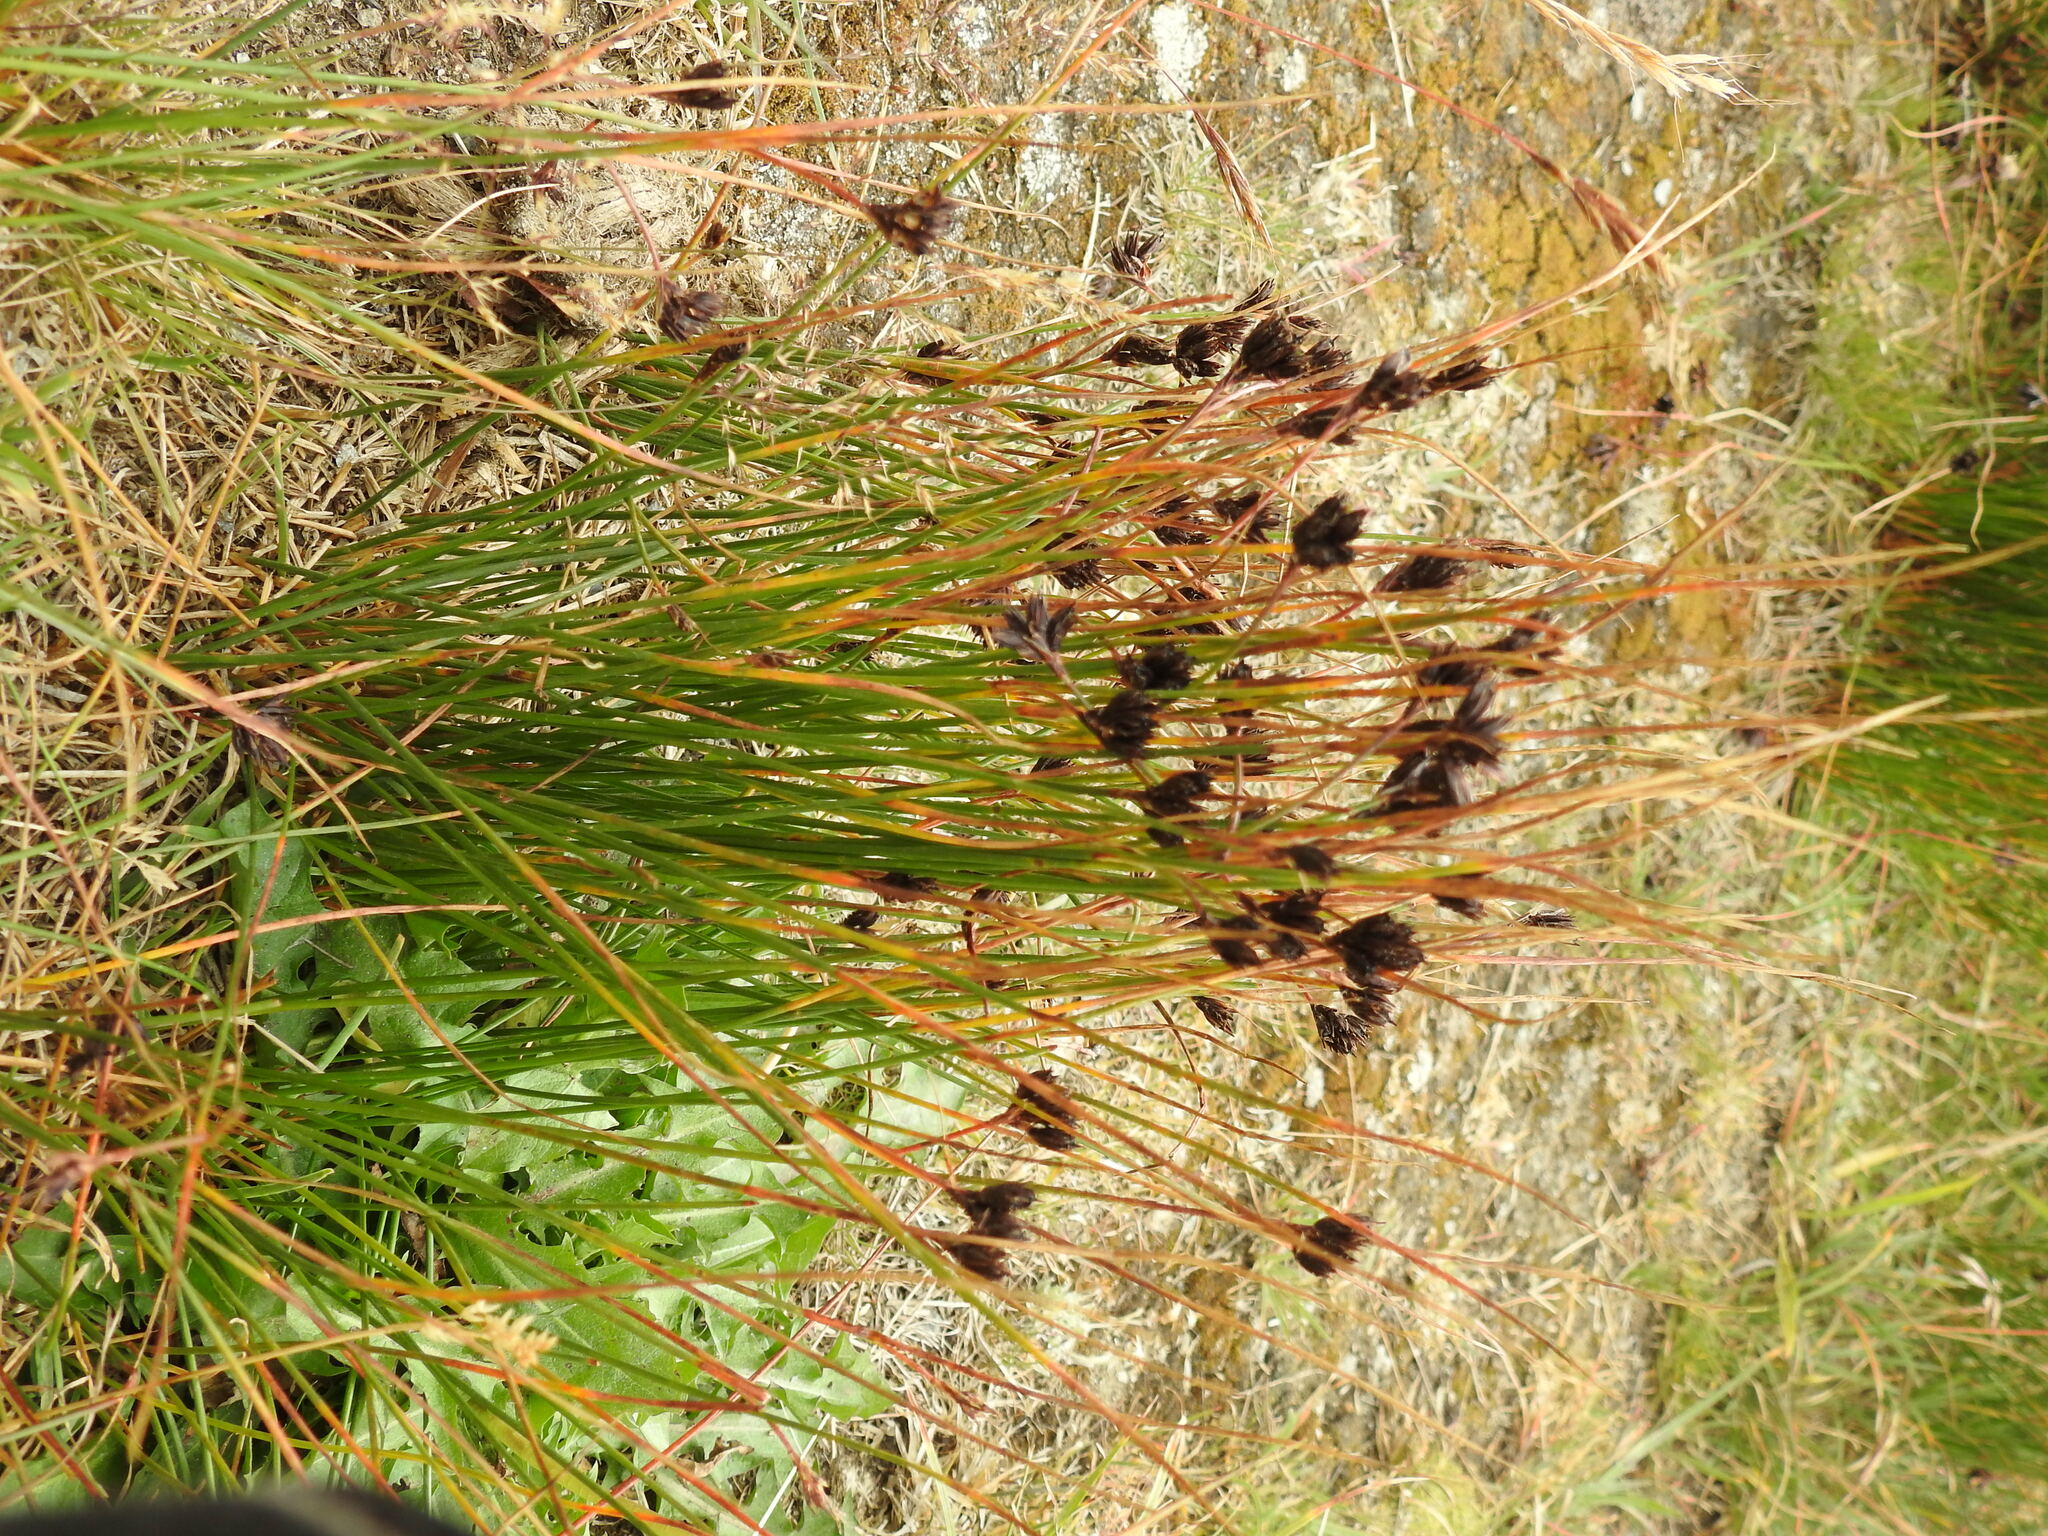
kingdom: Plantae
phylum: Tracheophyta
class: Liliopsida
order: Poales
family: Juncaceae
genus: Juncus
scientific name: Juncus jacquinii
